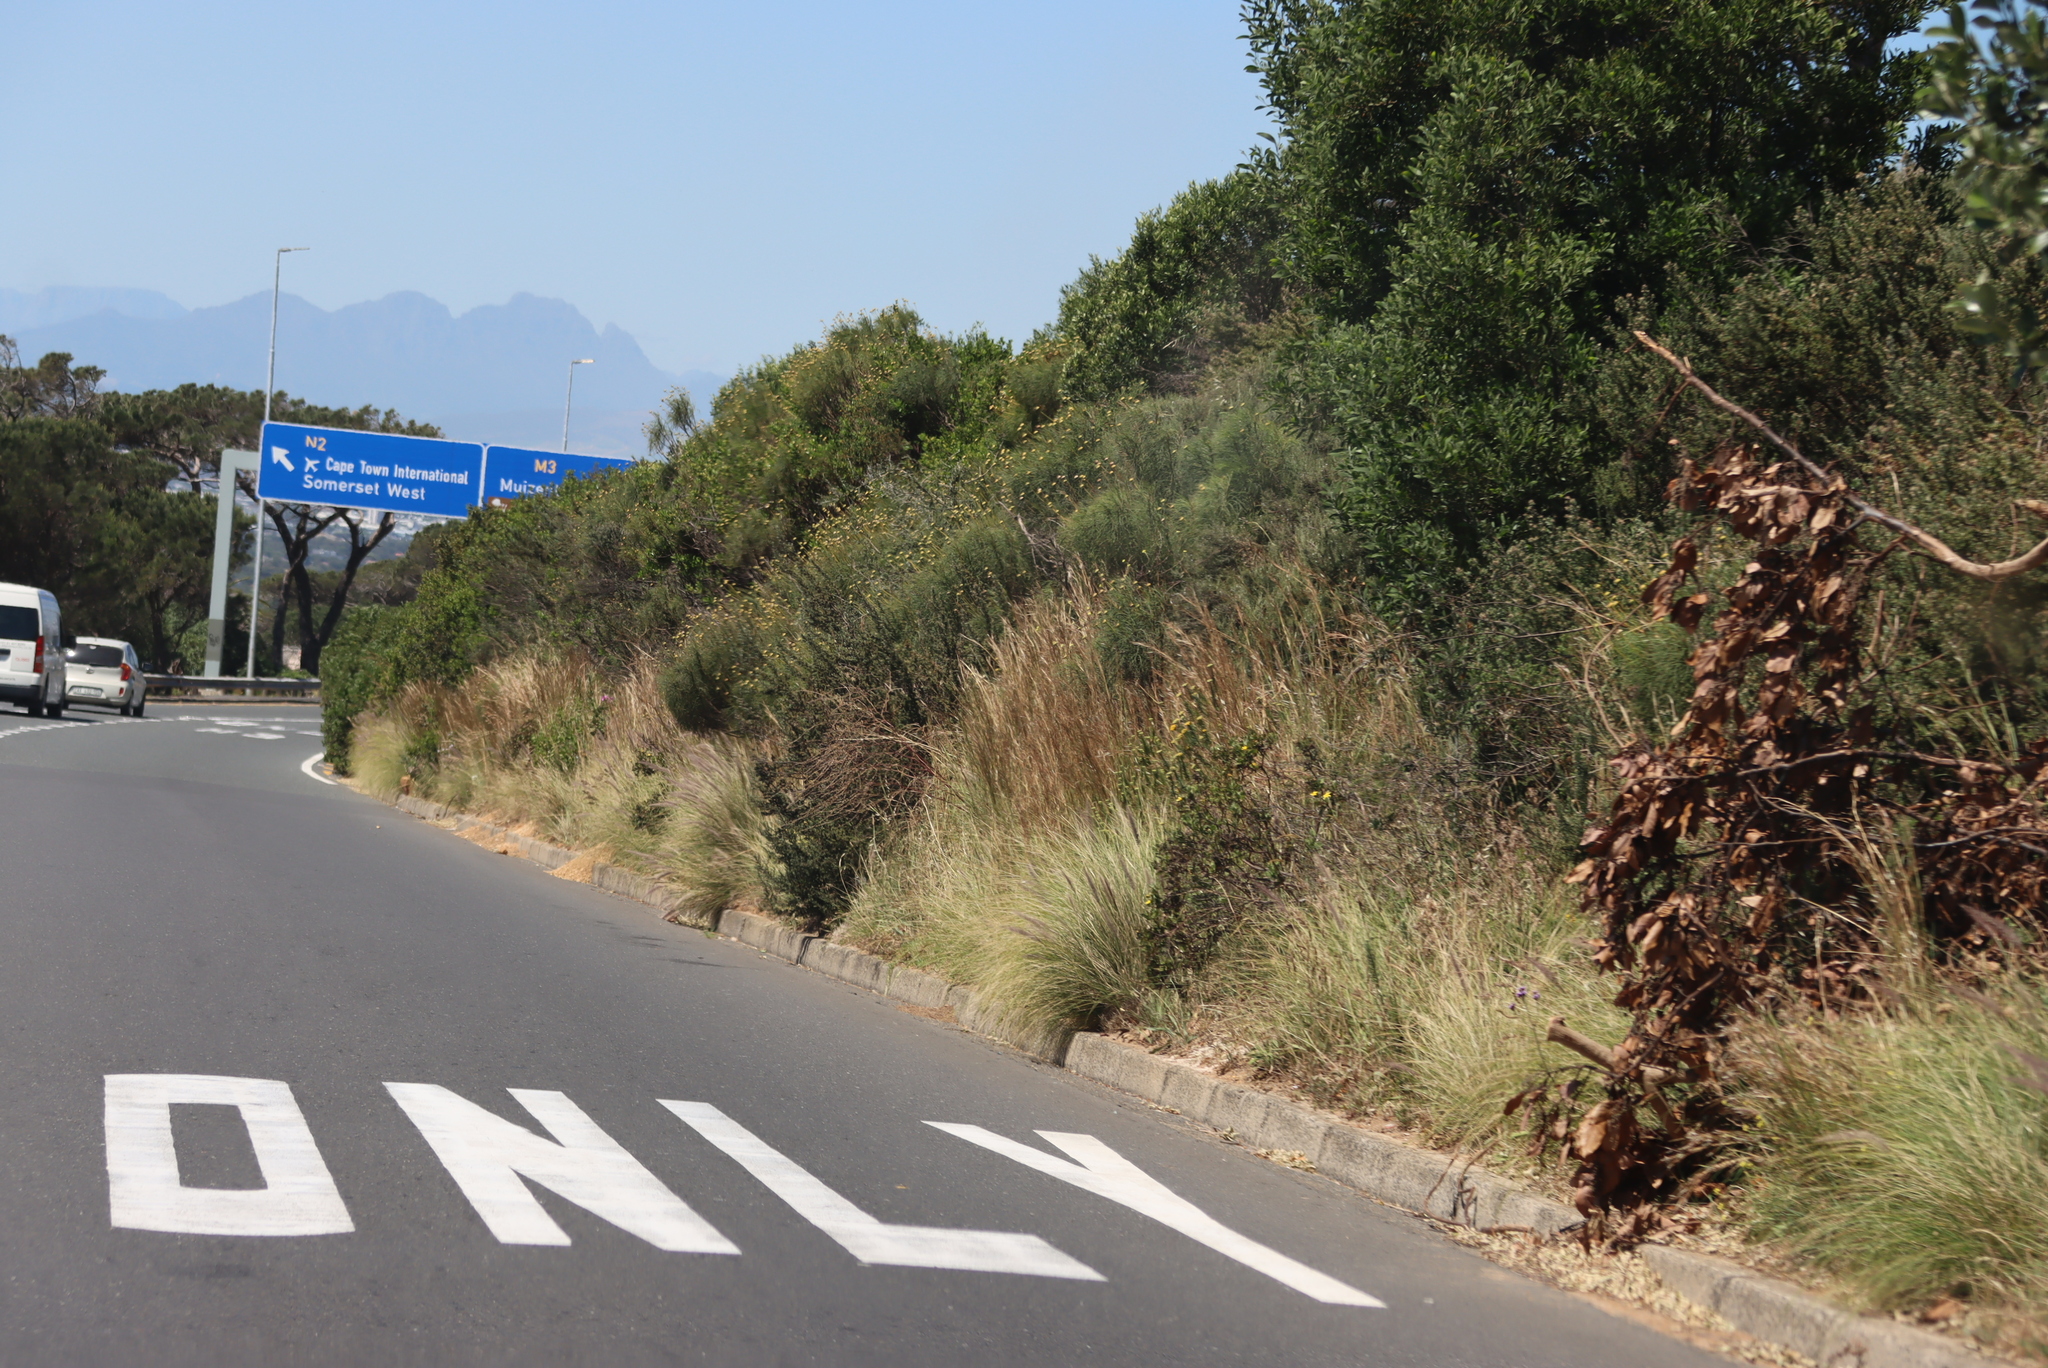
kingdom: Plantae
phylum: Tracheophyta
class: Liliopsida
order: Poales
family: Poaceae
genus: Cenchrus
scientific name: Cenchrus setaceus
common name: Crimson fountaingrass
